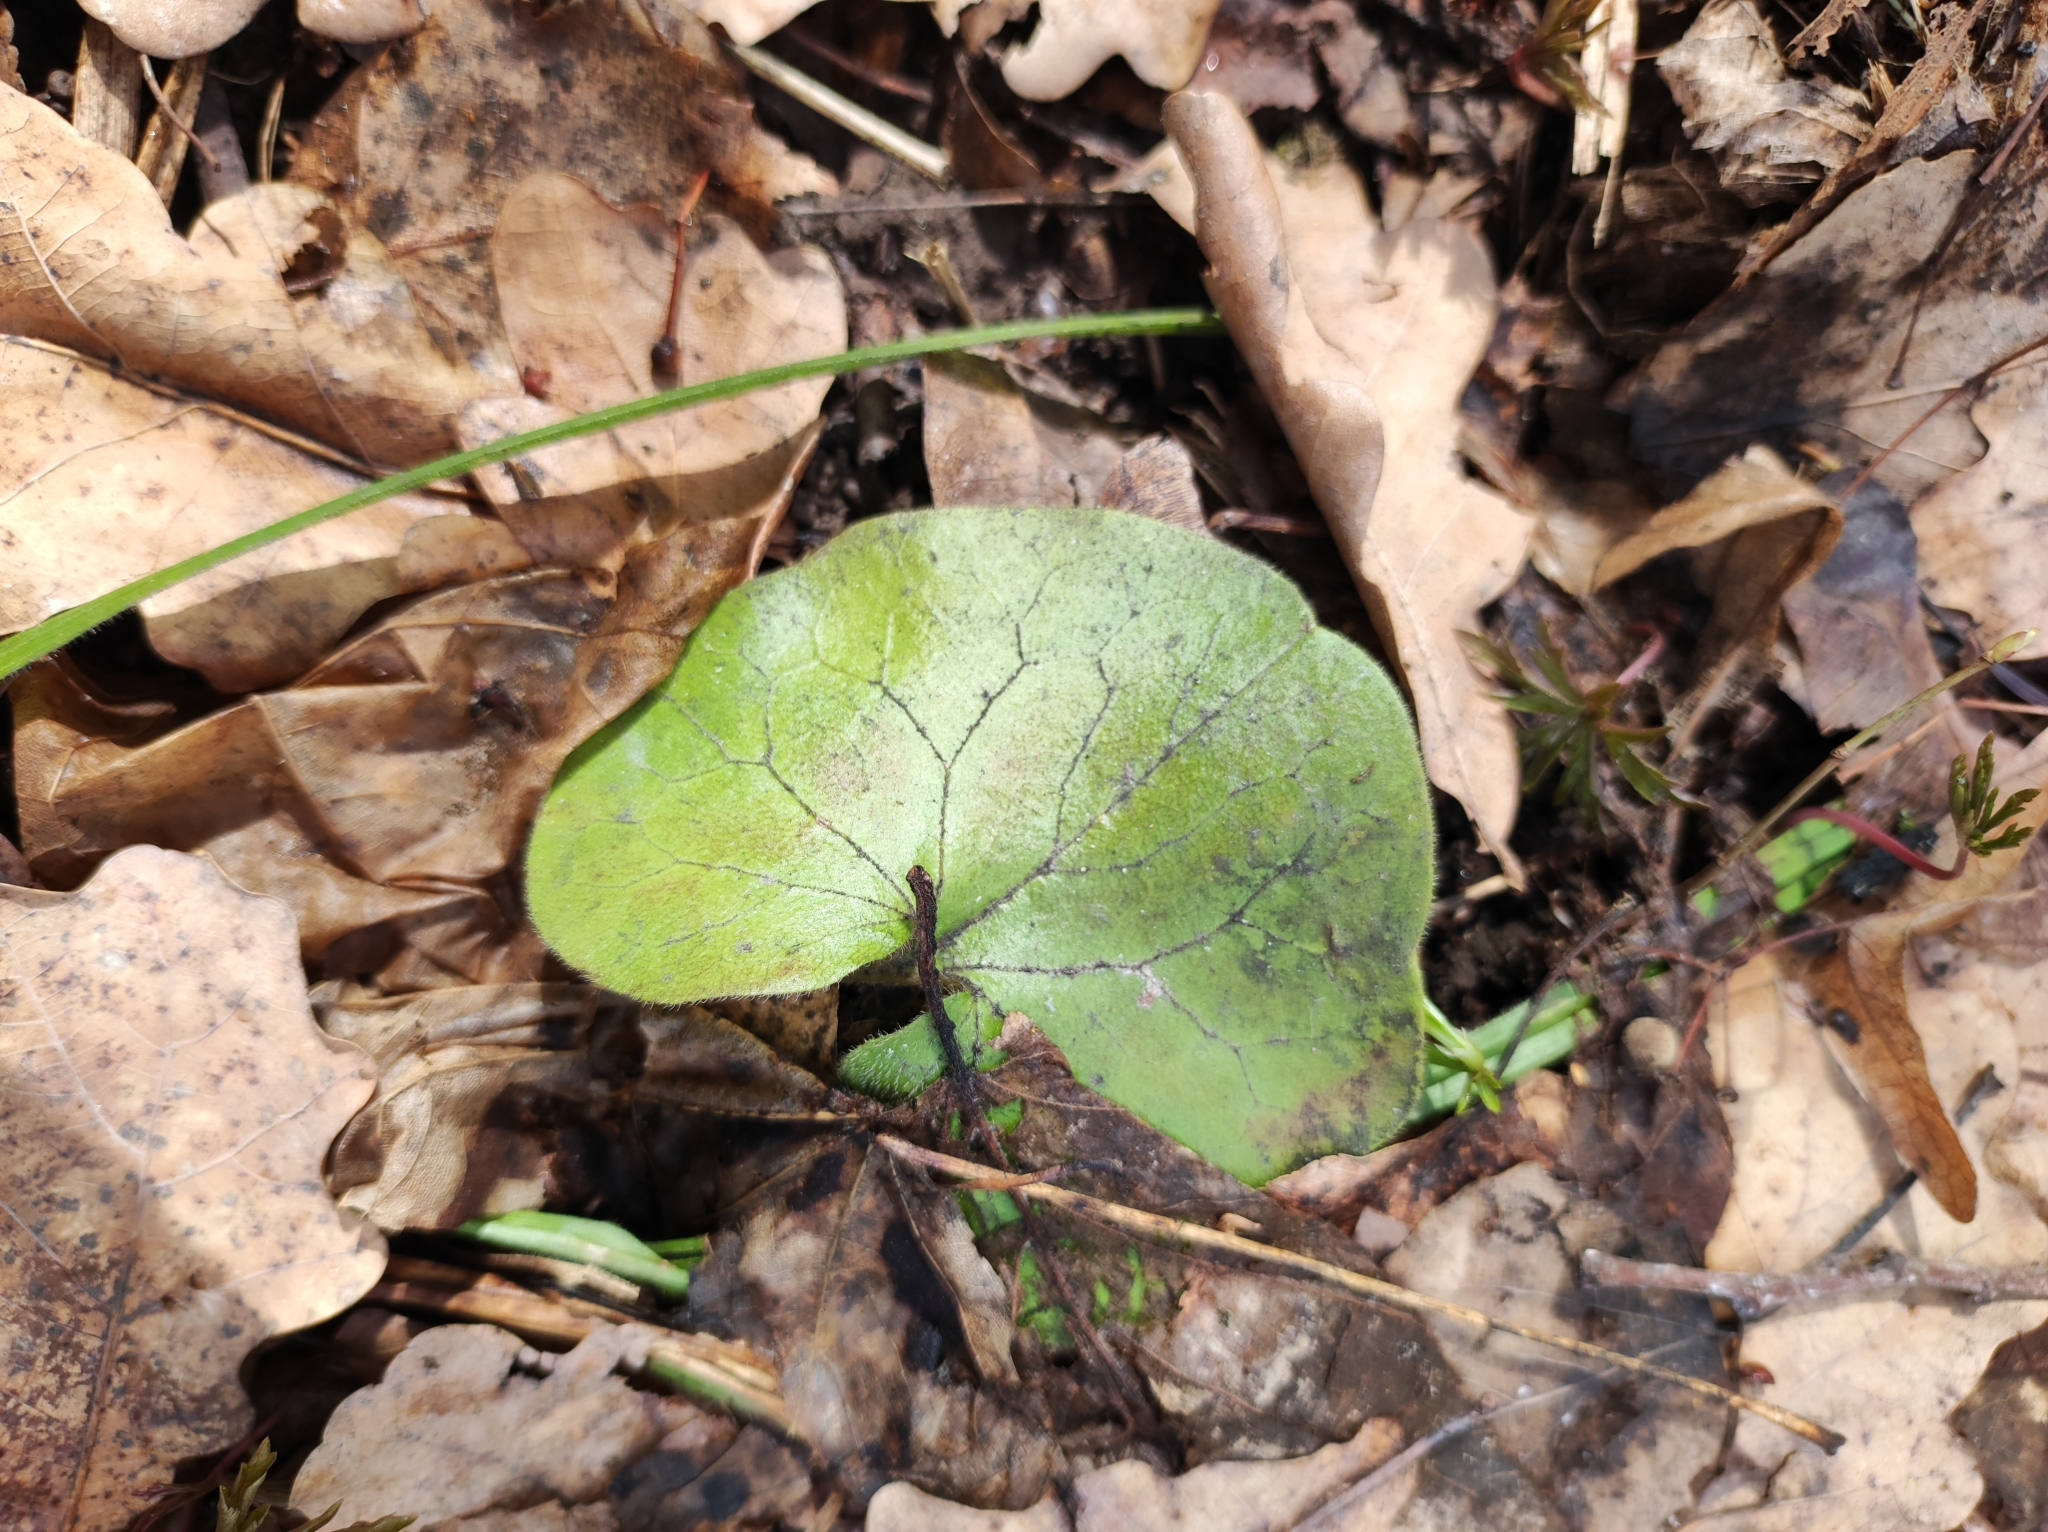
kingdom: Plantae
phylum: Tracheophyta
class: Magnoliopsida
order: Piperales
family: Aristolochiaceae
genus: Asarum
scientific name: Asarum europaeum
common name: Asarabacca
